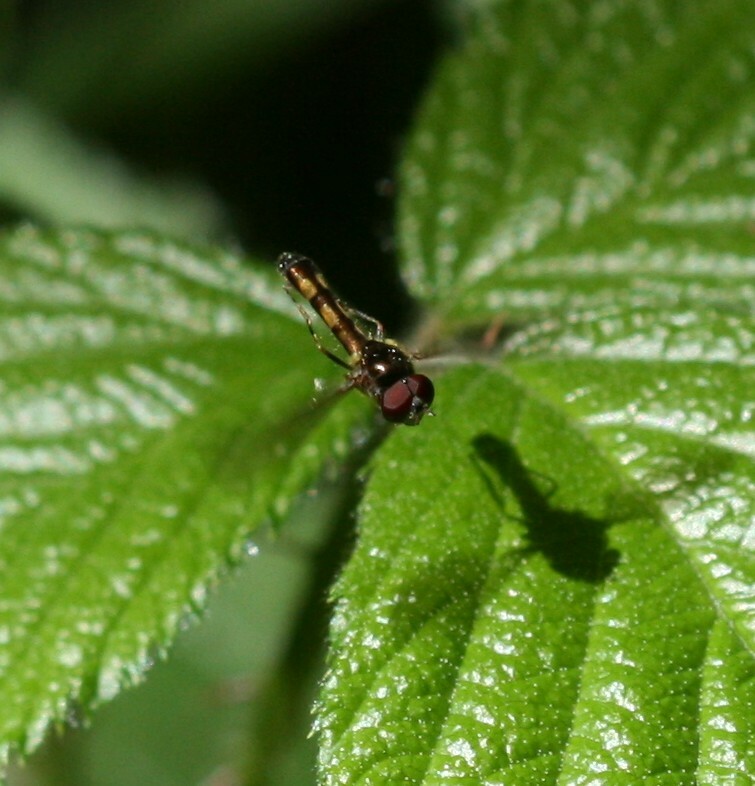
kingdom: Animalia
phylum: Arthropoda
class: Insecta
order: Diptera
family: Syrphidae
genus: Melanostoma
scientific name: Melanostoma scalare
